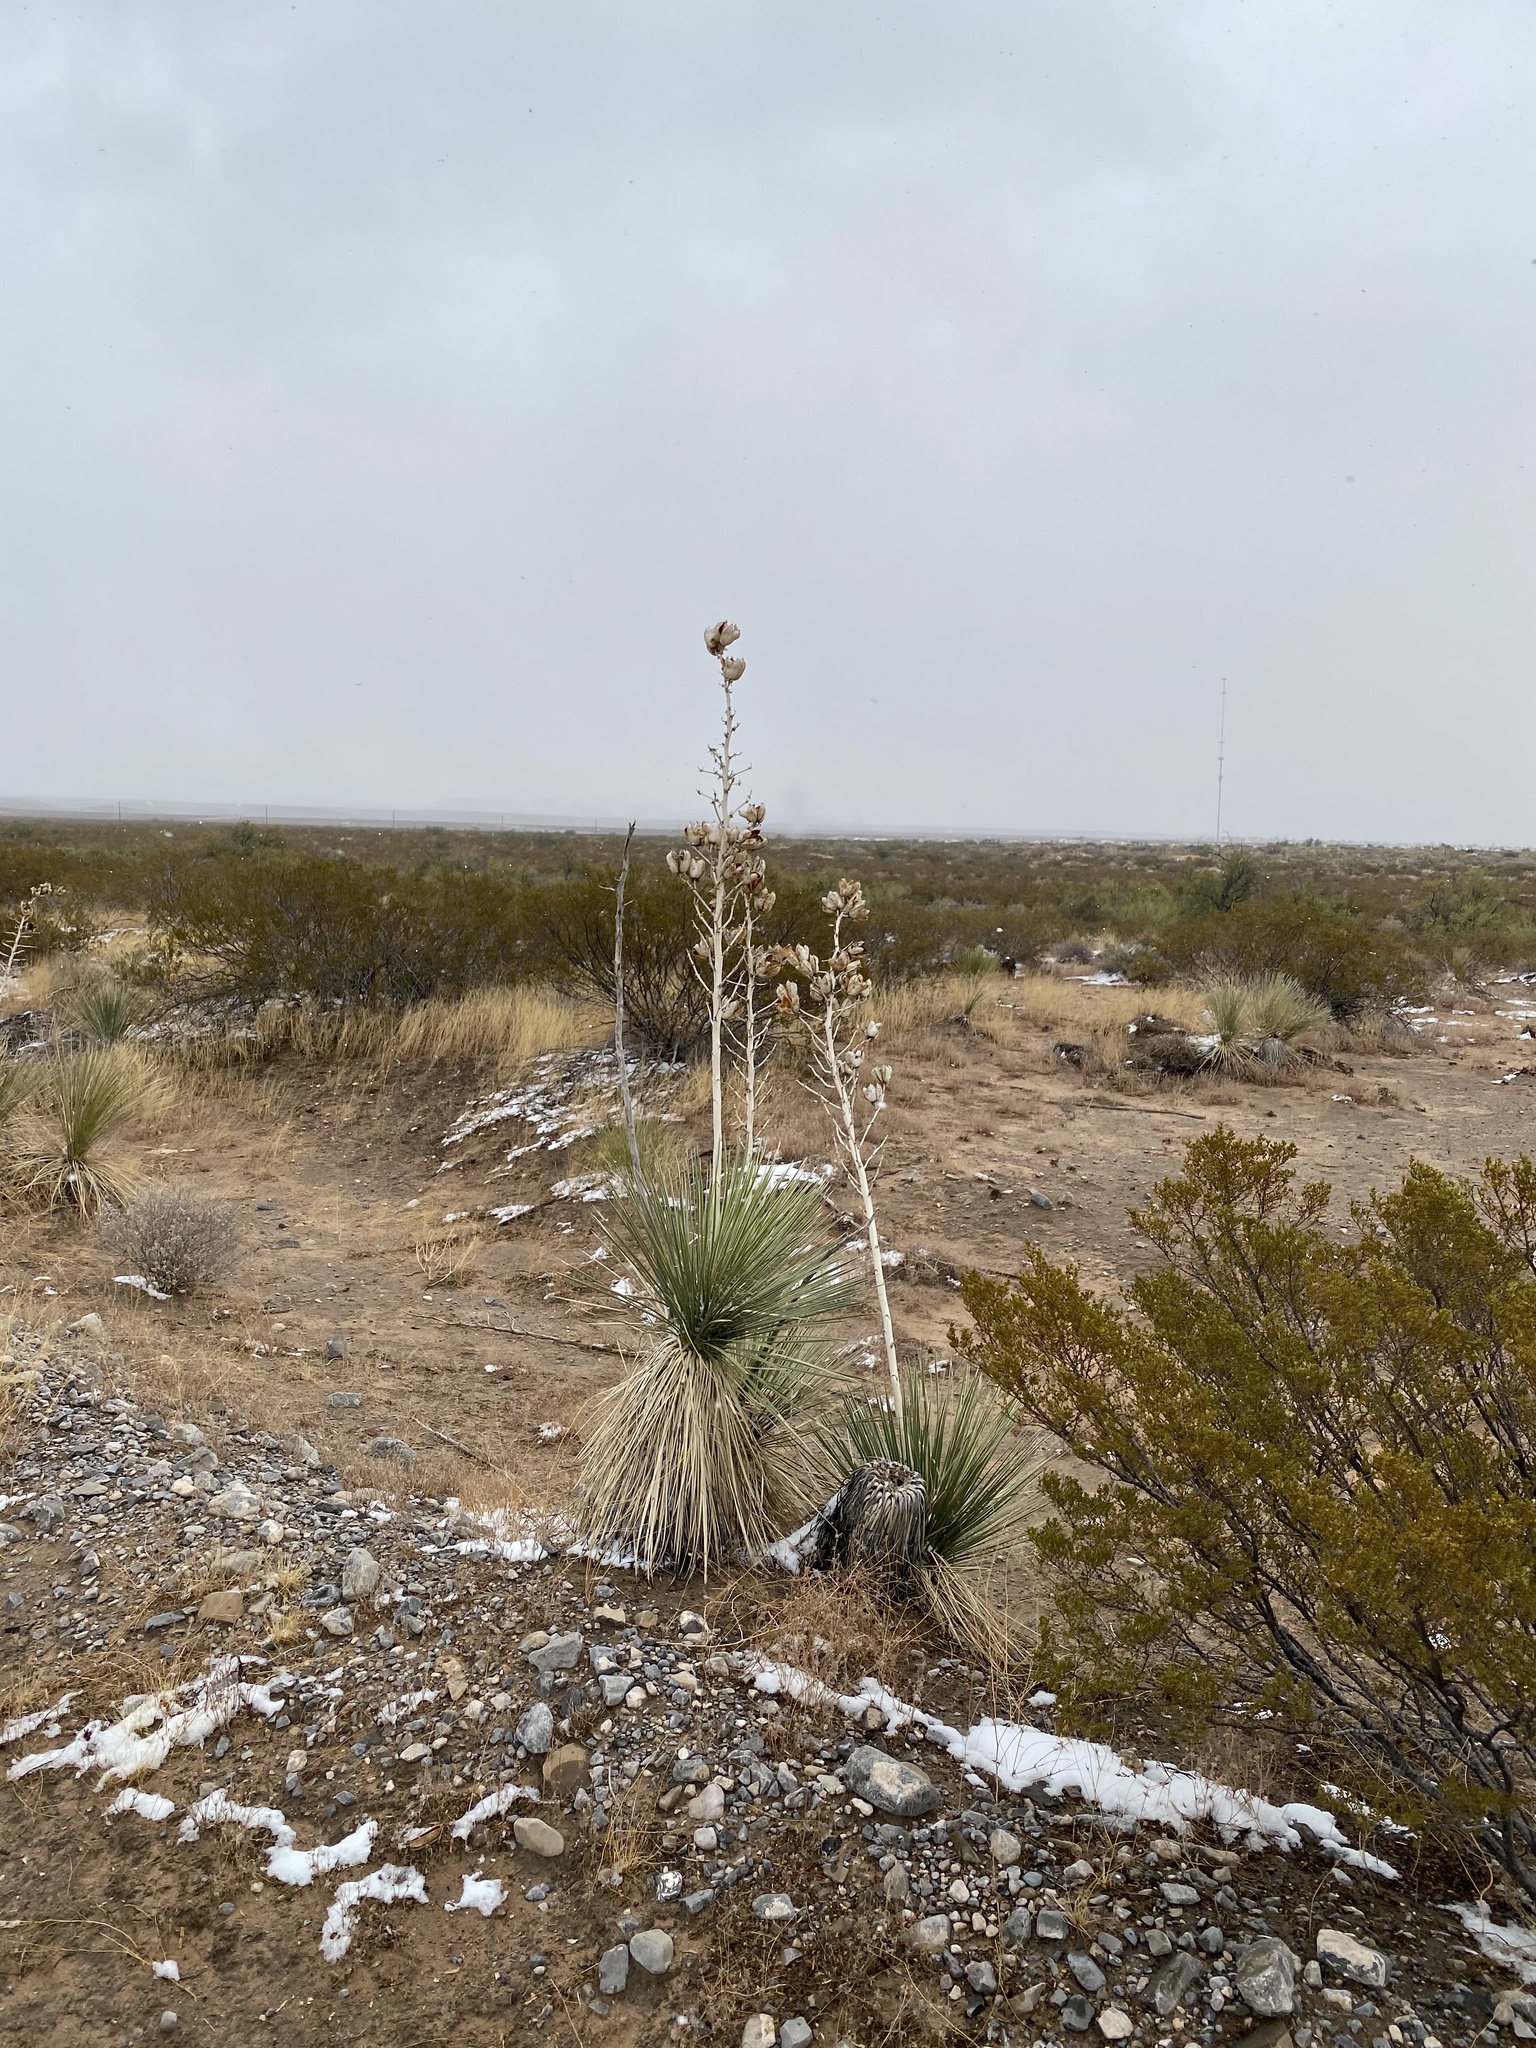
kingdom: Plantae
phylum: Tracheophyta
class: Liliopsida
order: Asparagales
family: Asparagaceae
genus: Yucca
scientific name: Yucca elata
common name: Palmella
